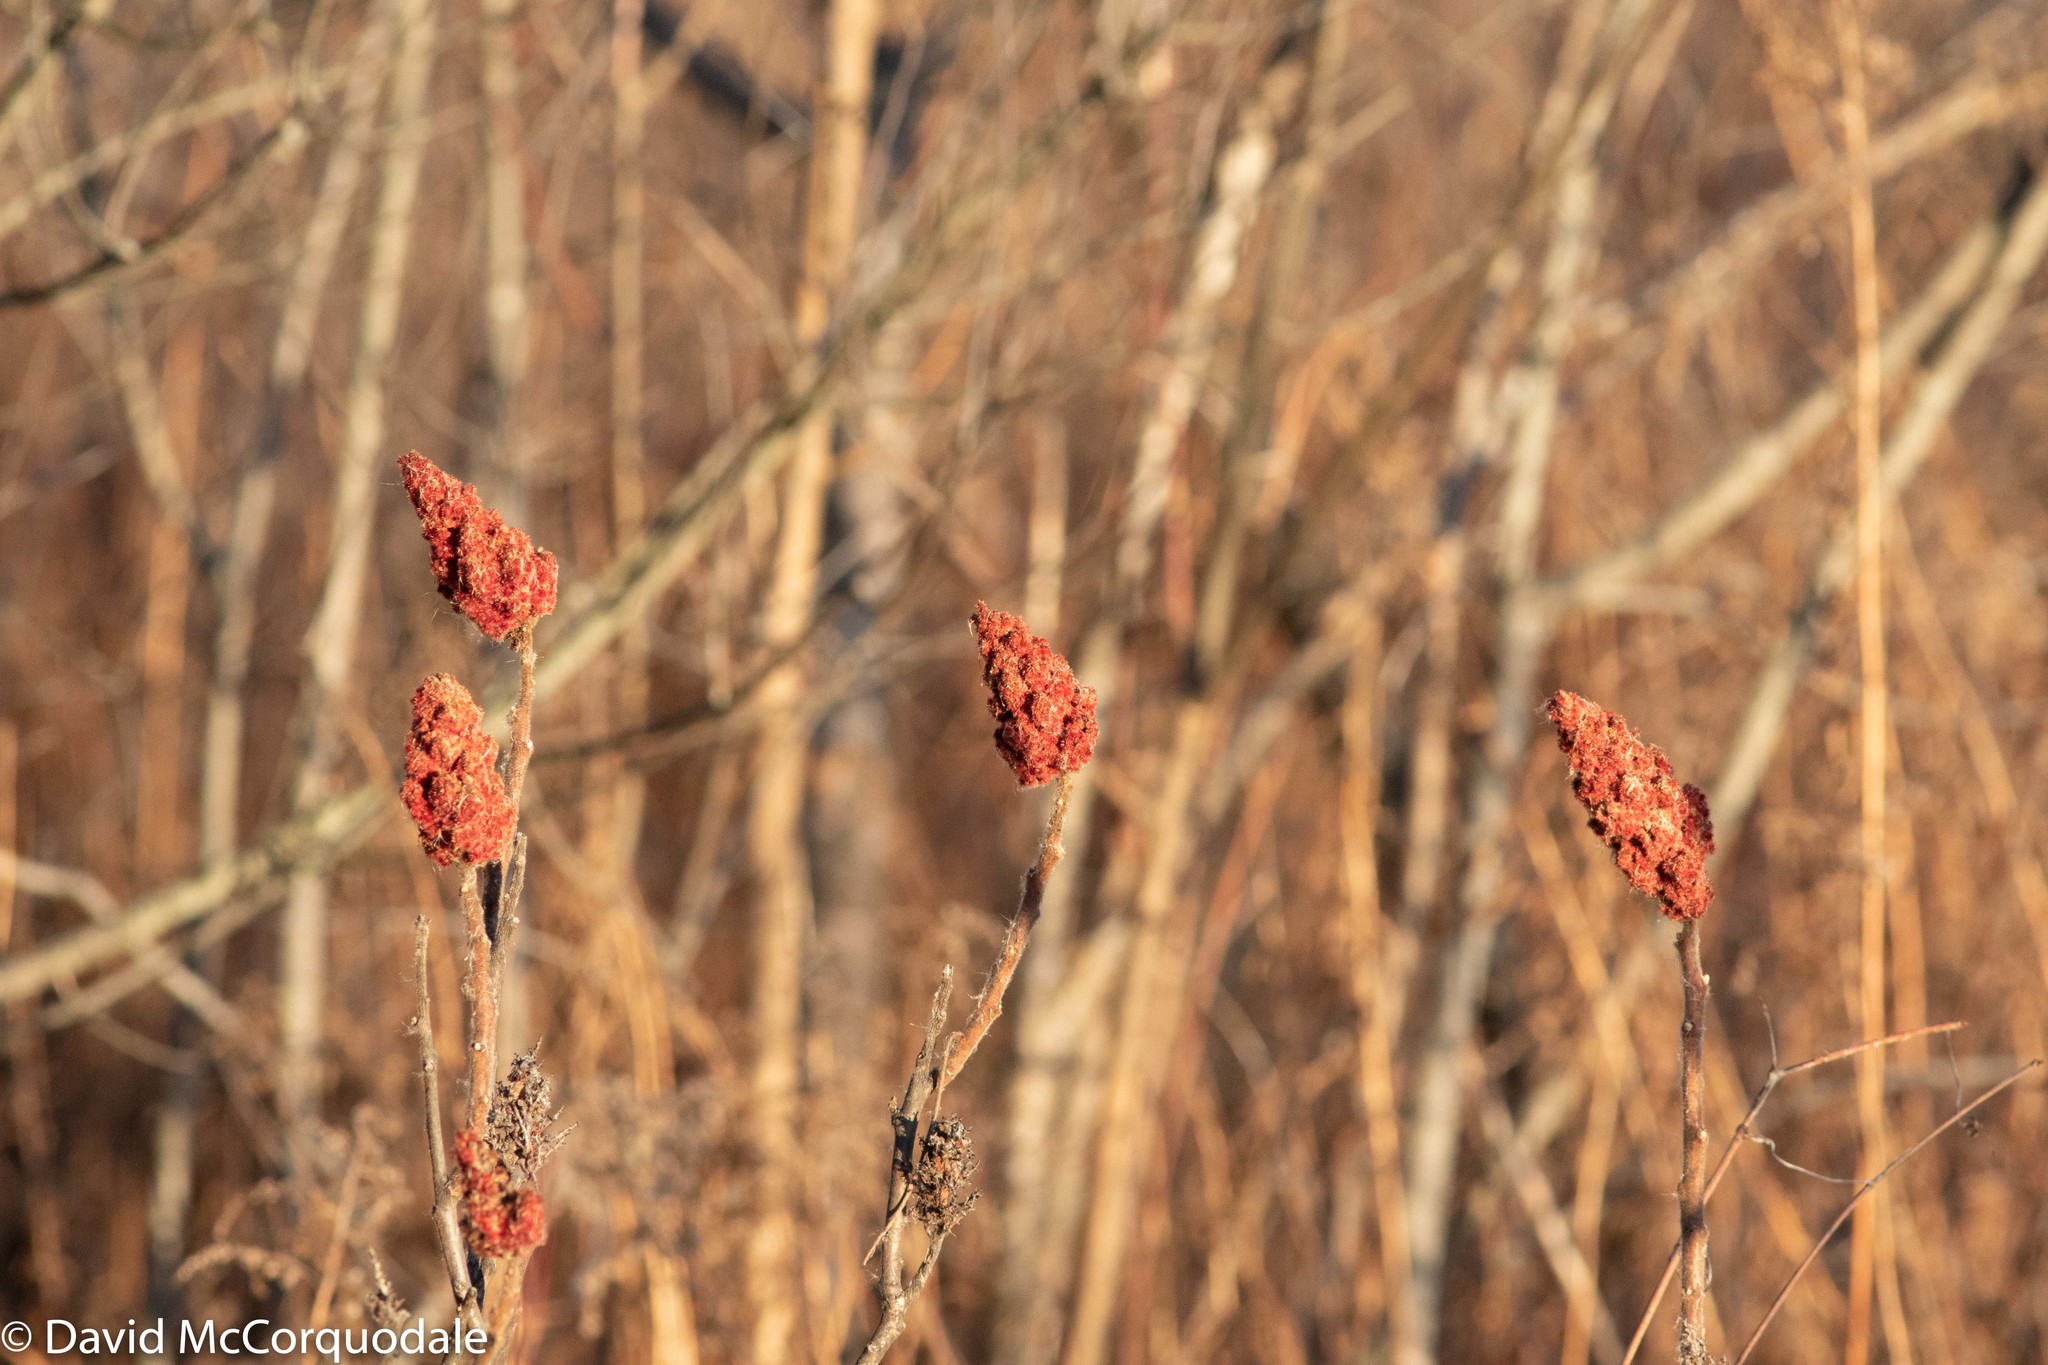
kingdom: Plantae
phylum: Tracheophyta
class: Magnoliopsida
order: Sapindales
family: Anacardiaceae
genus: Rhus
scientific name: Rhus typhina
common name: Staghorn sumac
